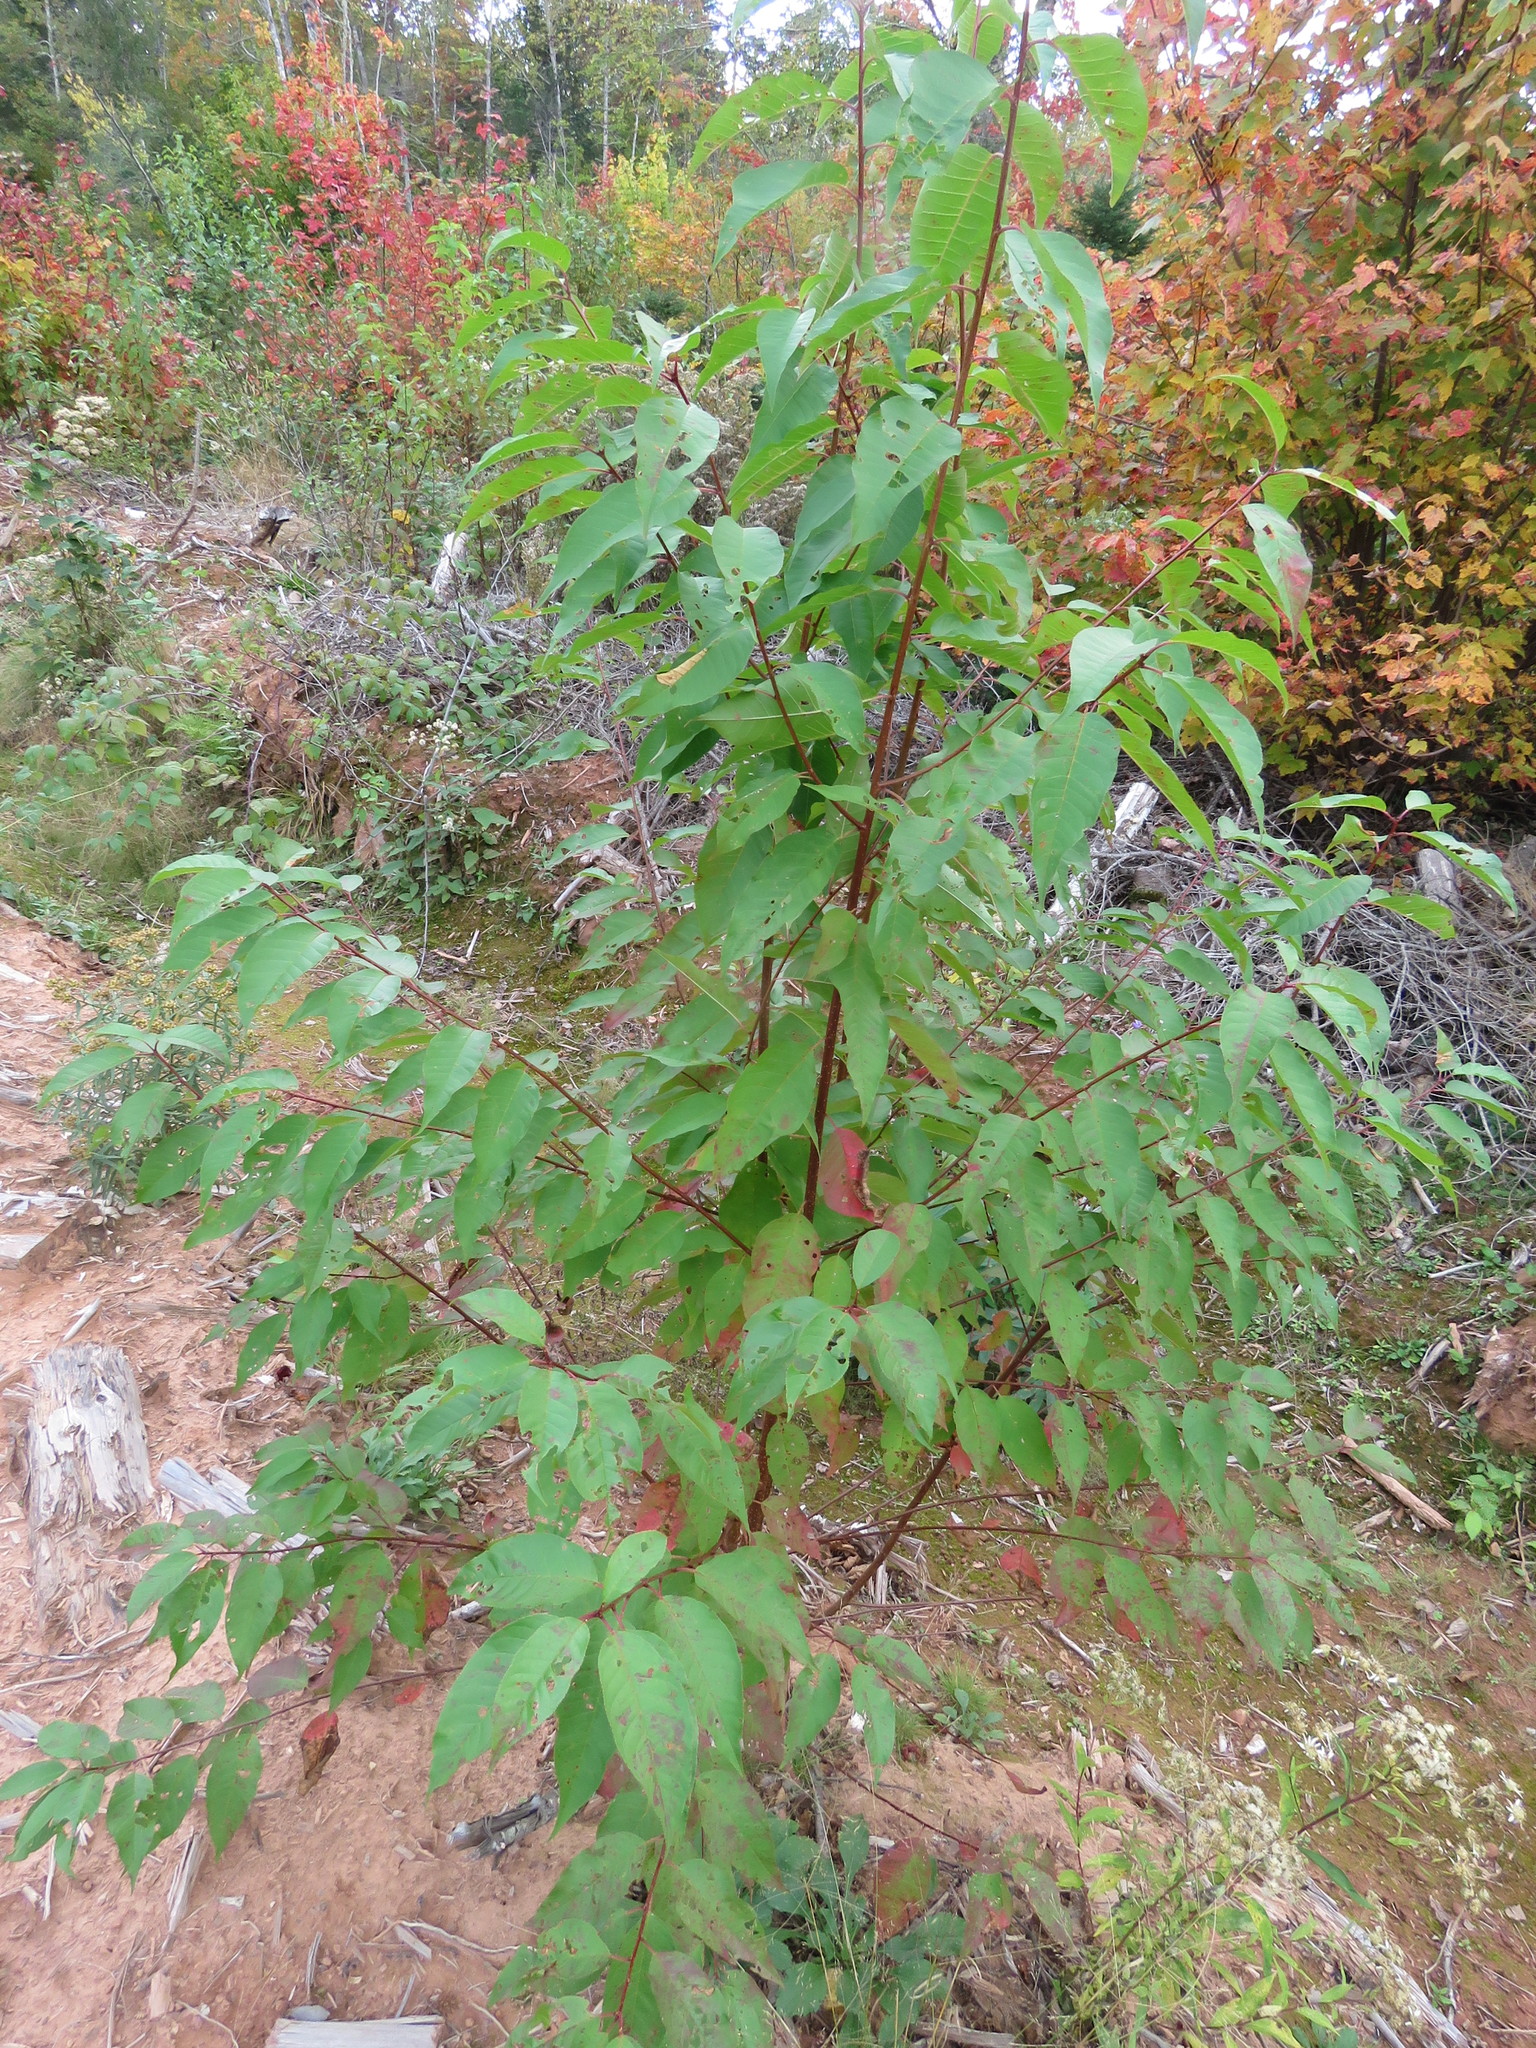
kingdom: Plantae
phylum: Tracheophyta
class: Magnoliopsida
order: Rosales
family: Rosaceae
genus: Prunus
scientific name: Prunus pensylvanica
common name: Pin cherry
